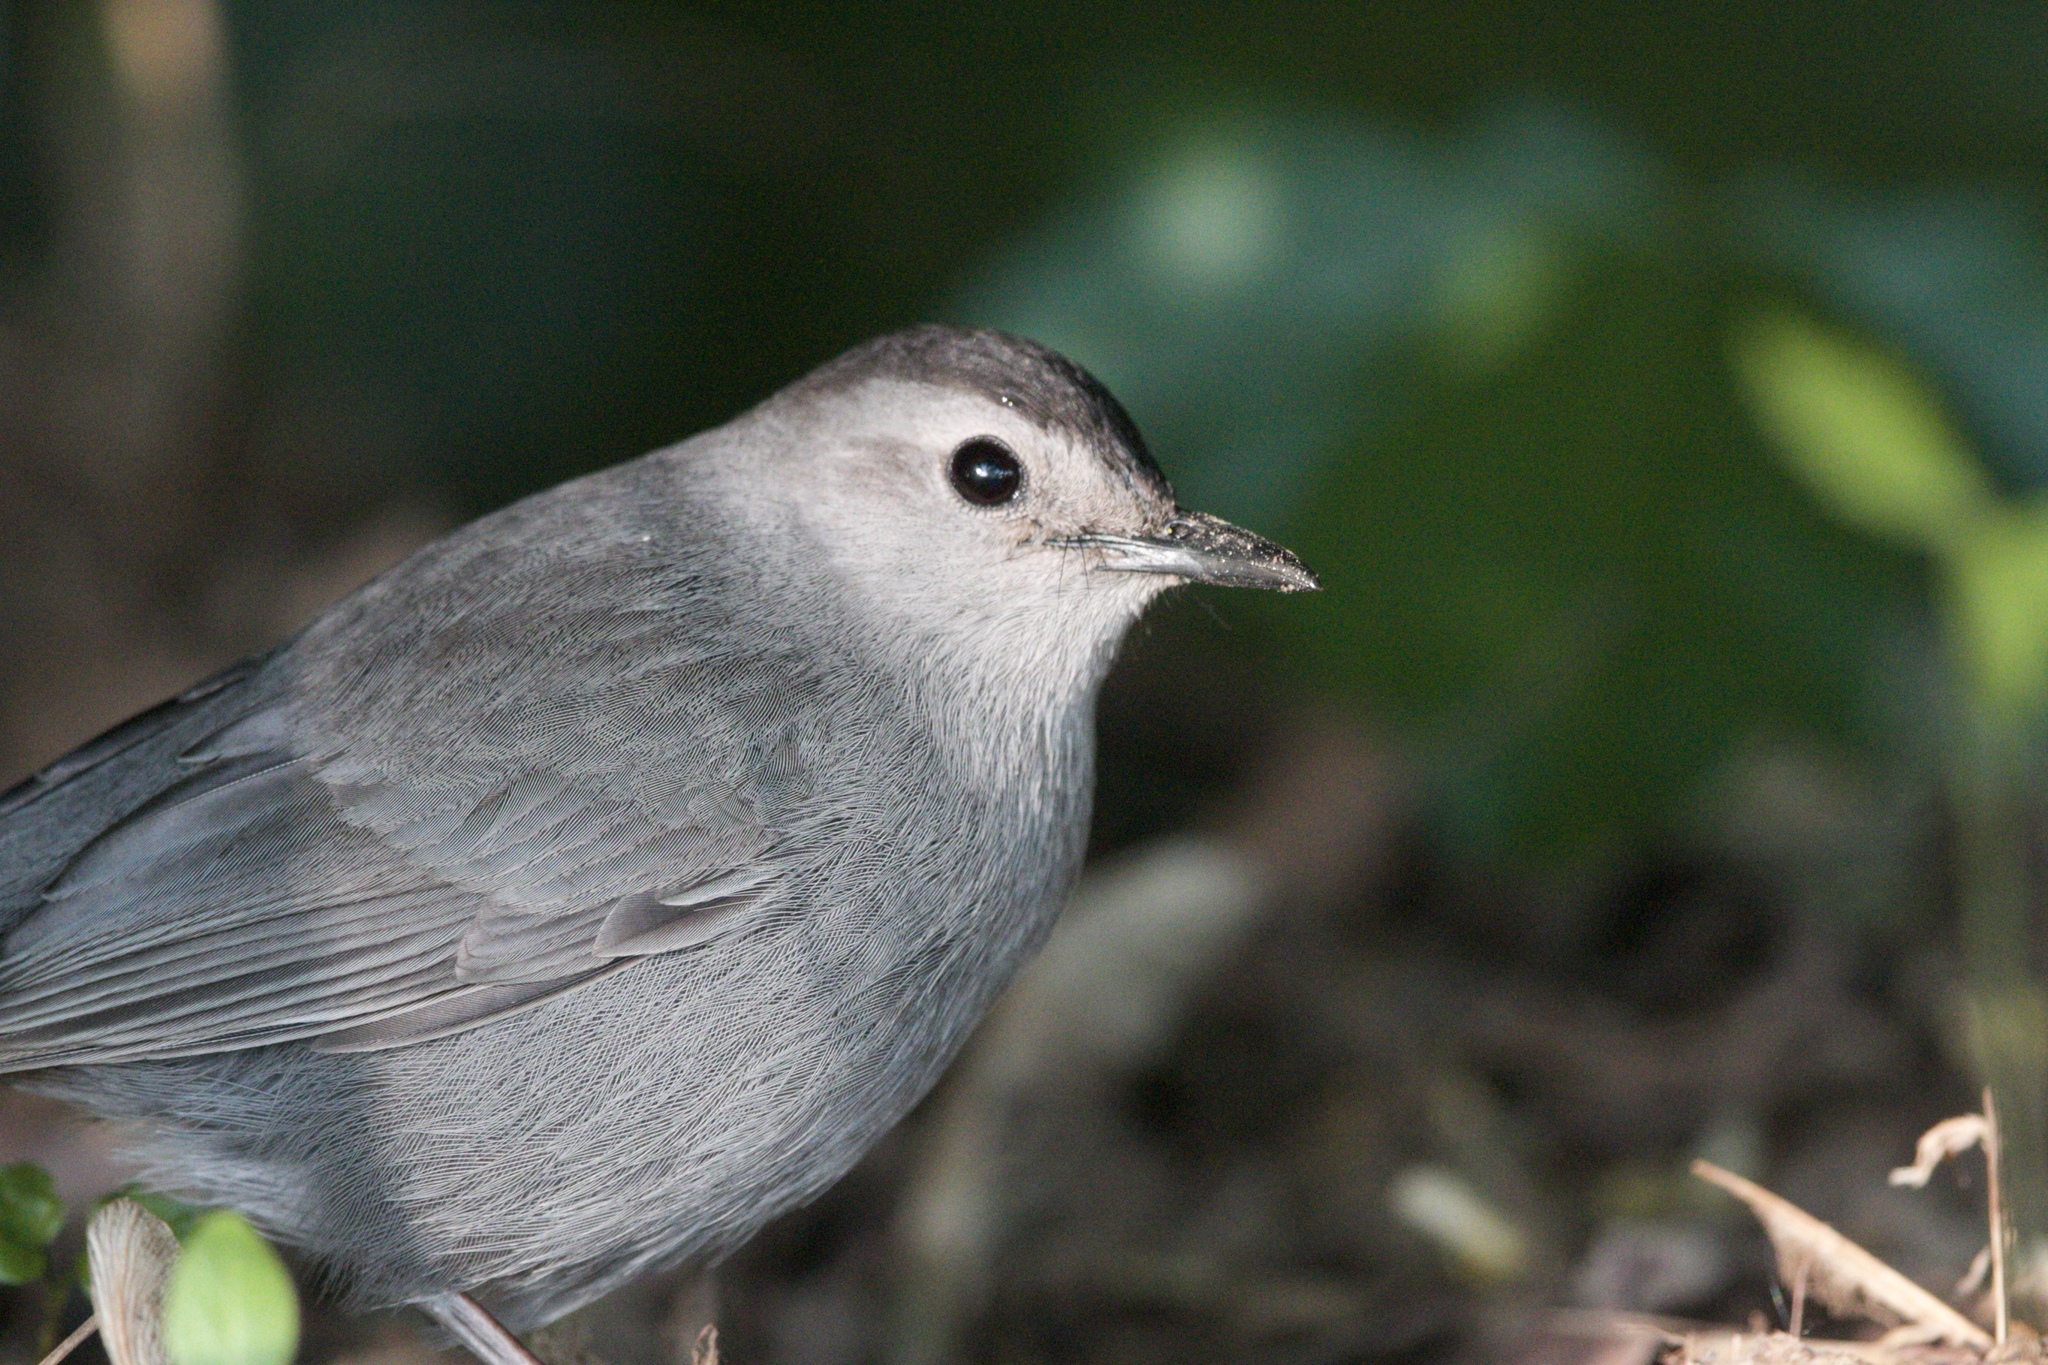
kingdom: Animalia
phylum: Chordata
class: Aves
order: Passeriformes
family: Mimidae
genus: Dumetella
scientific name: Dumetella carolinensis
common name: Gray catbird
